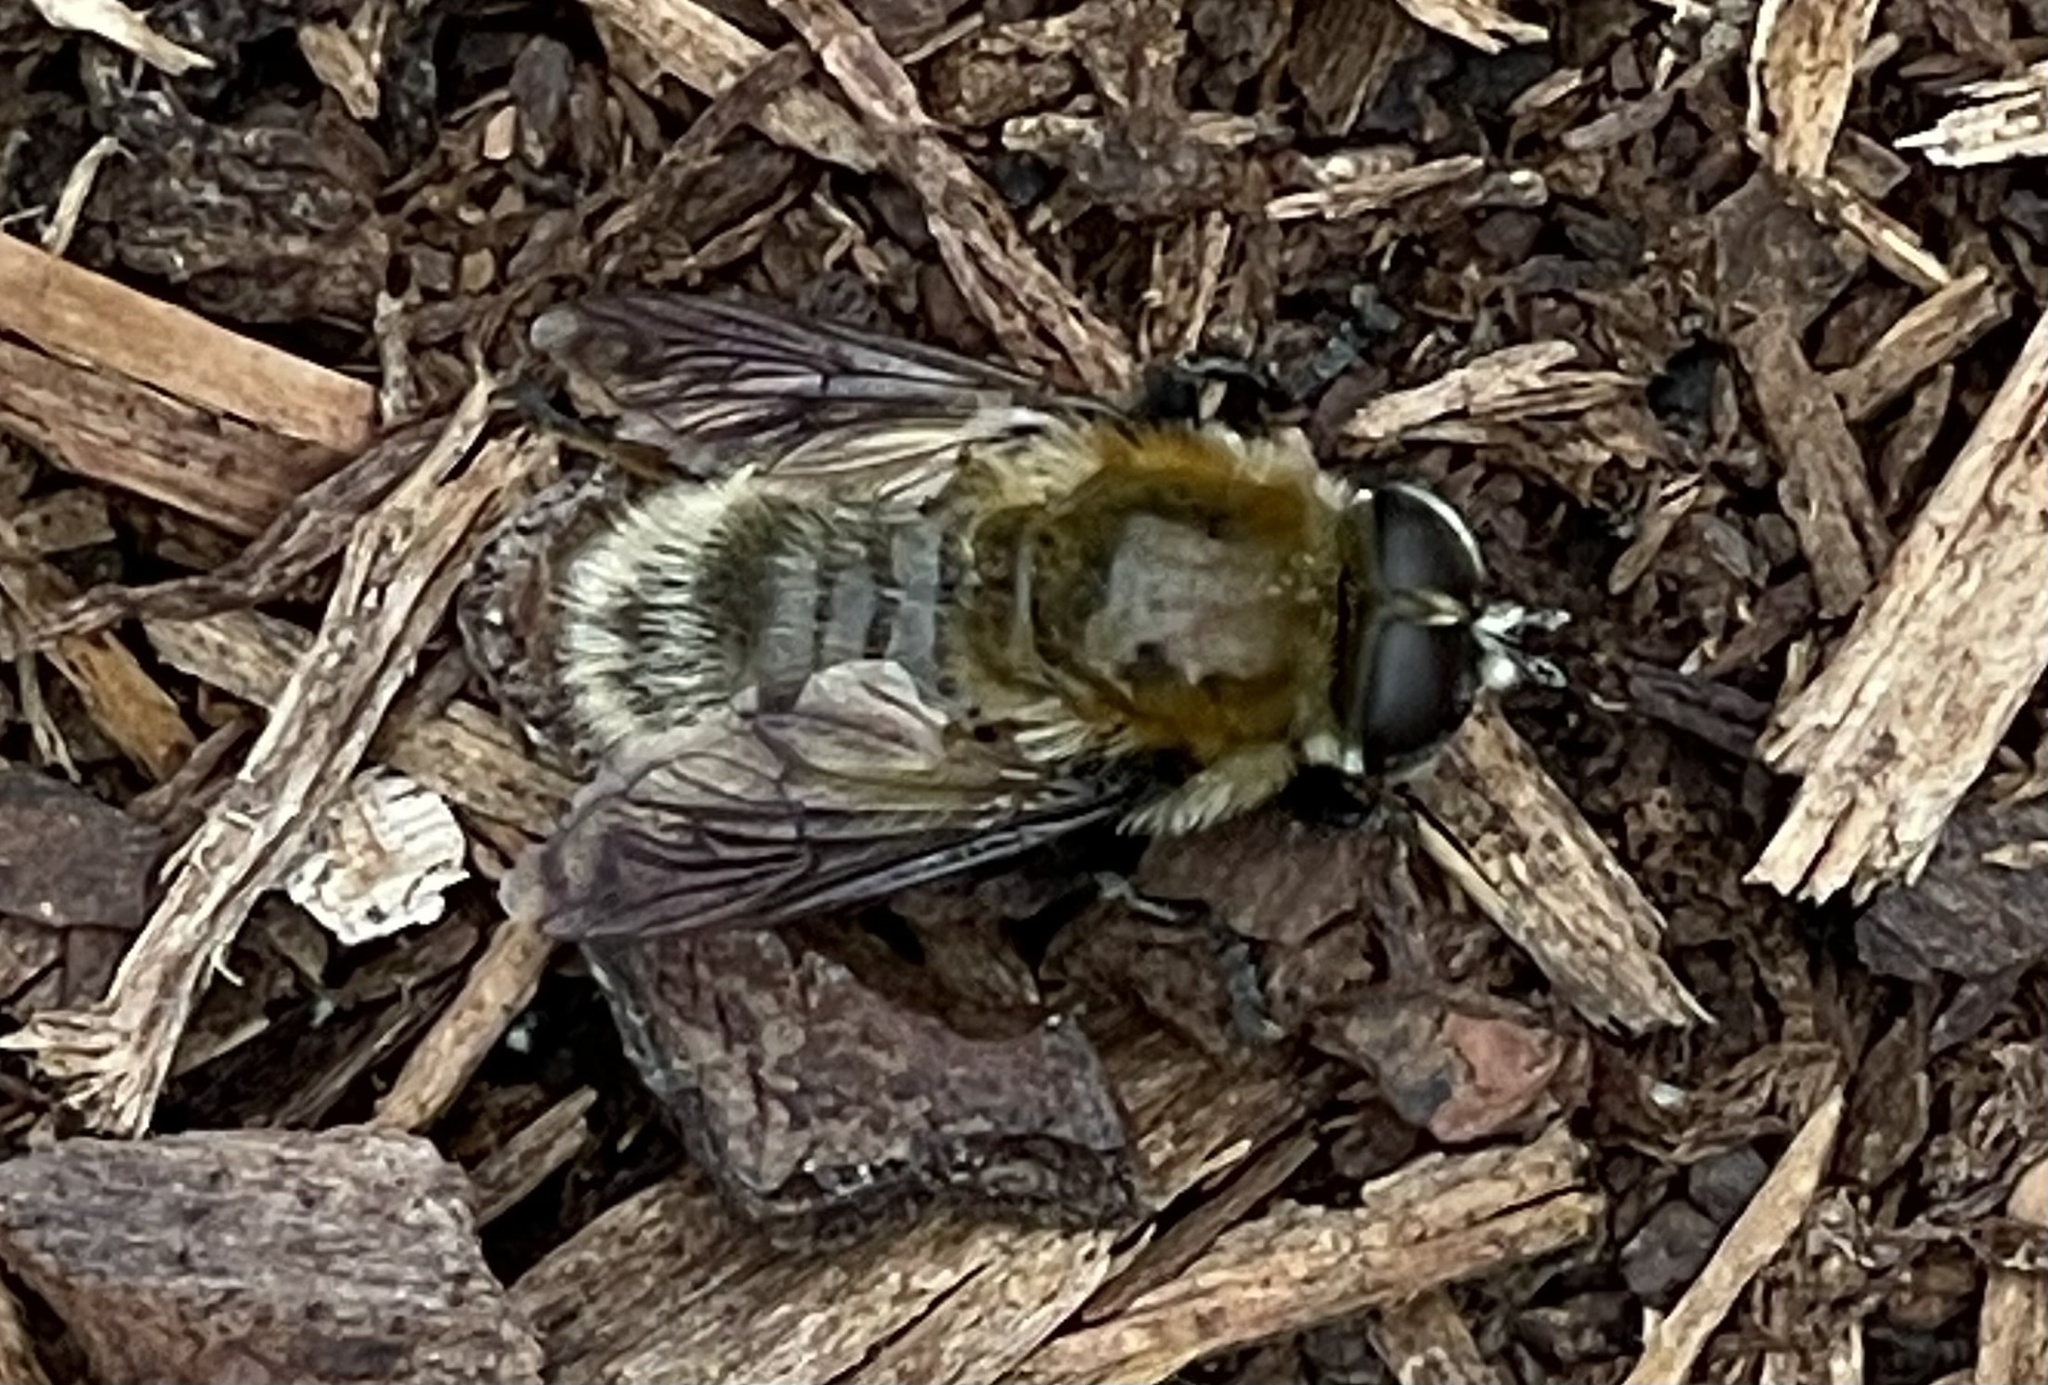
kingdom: Animalia
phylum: Arthropoda
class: Insecta
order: Diptera
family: Syrphidae
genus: Merodon
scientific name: Merodon equestris
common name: Greater bulb-fly
